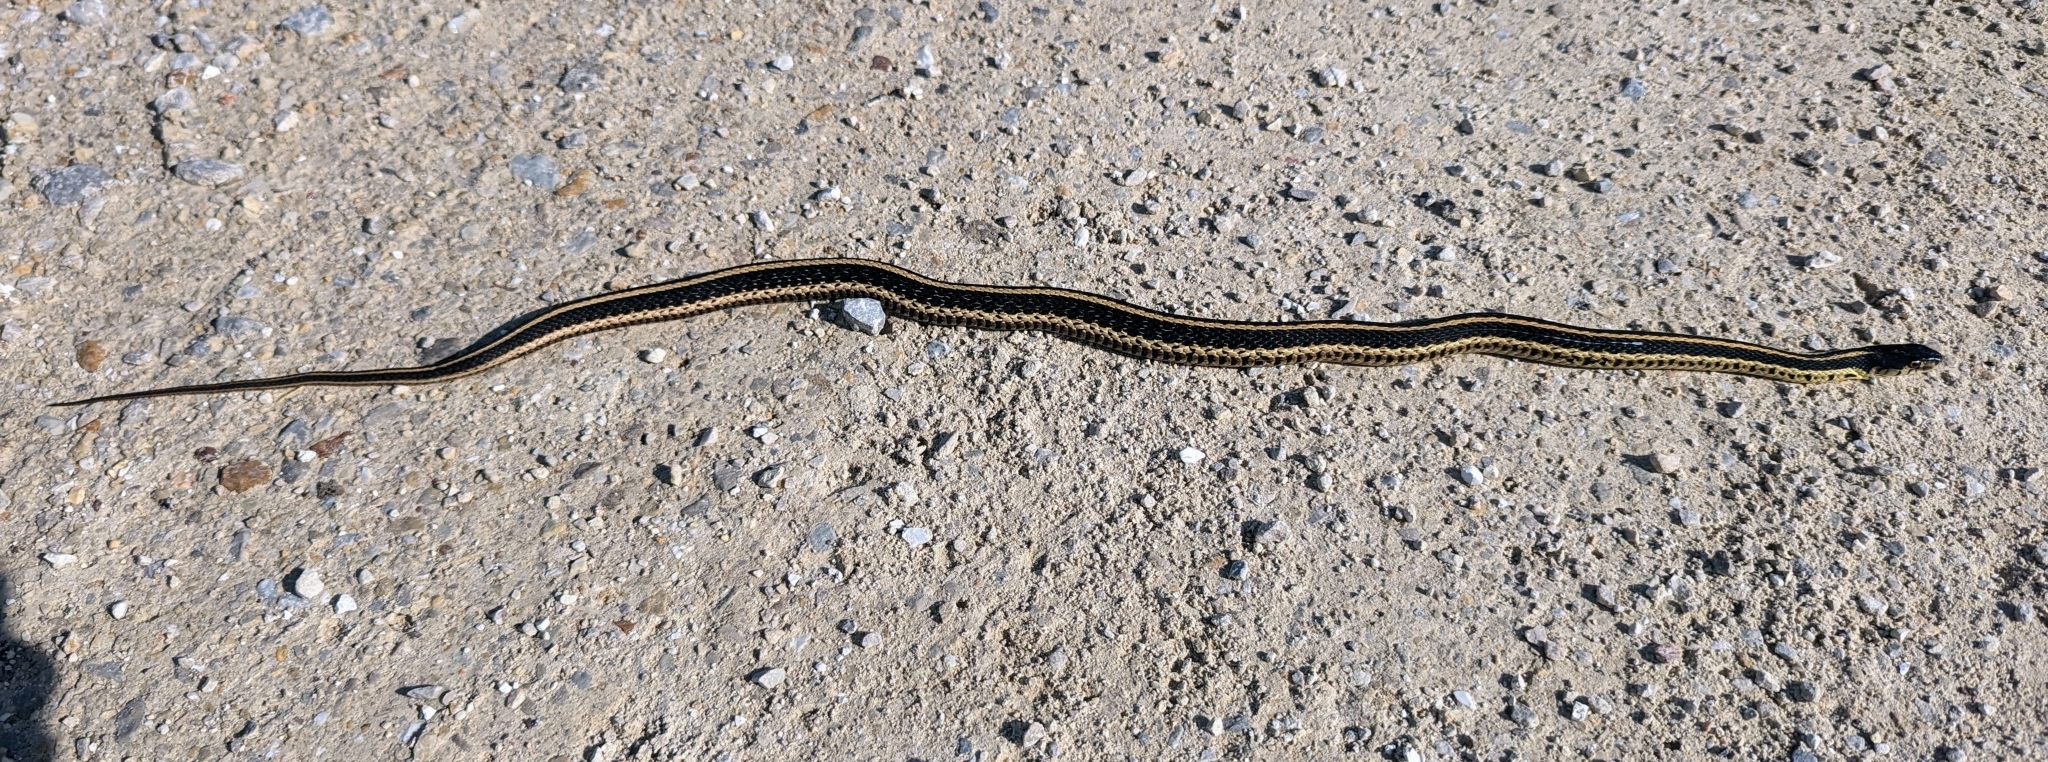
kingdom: Animalia
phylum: Chordata
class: Squamata
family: Colubridae
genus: Thamnophis
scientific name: Thamnophis sirtalis
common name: Common garter snake
